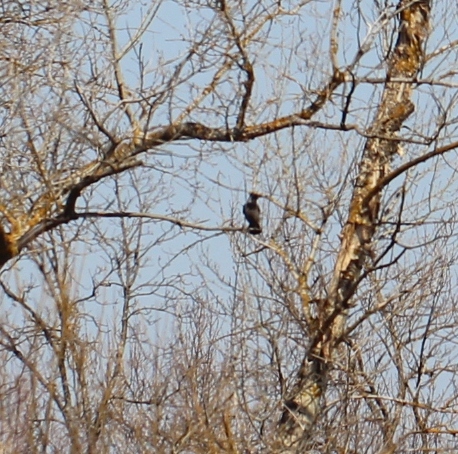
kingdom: Animalia
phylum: Chordata
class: Aves
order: Passeriformes
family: Corvidae
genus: Corvus
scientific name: Corvus cornix
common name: Hooded crow
